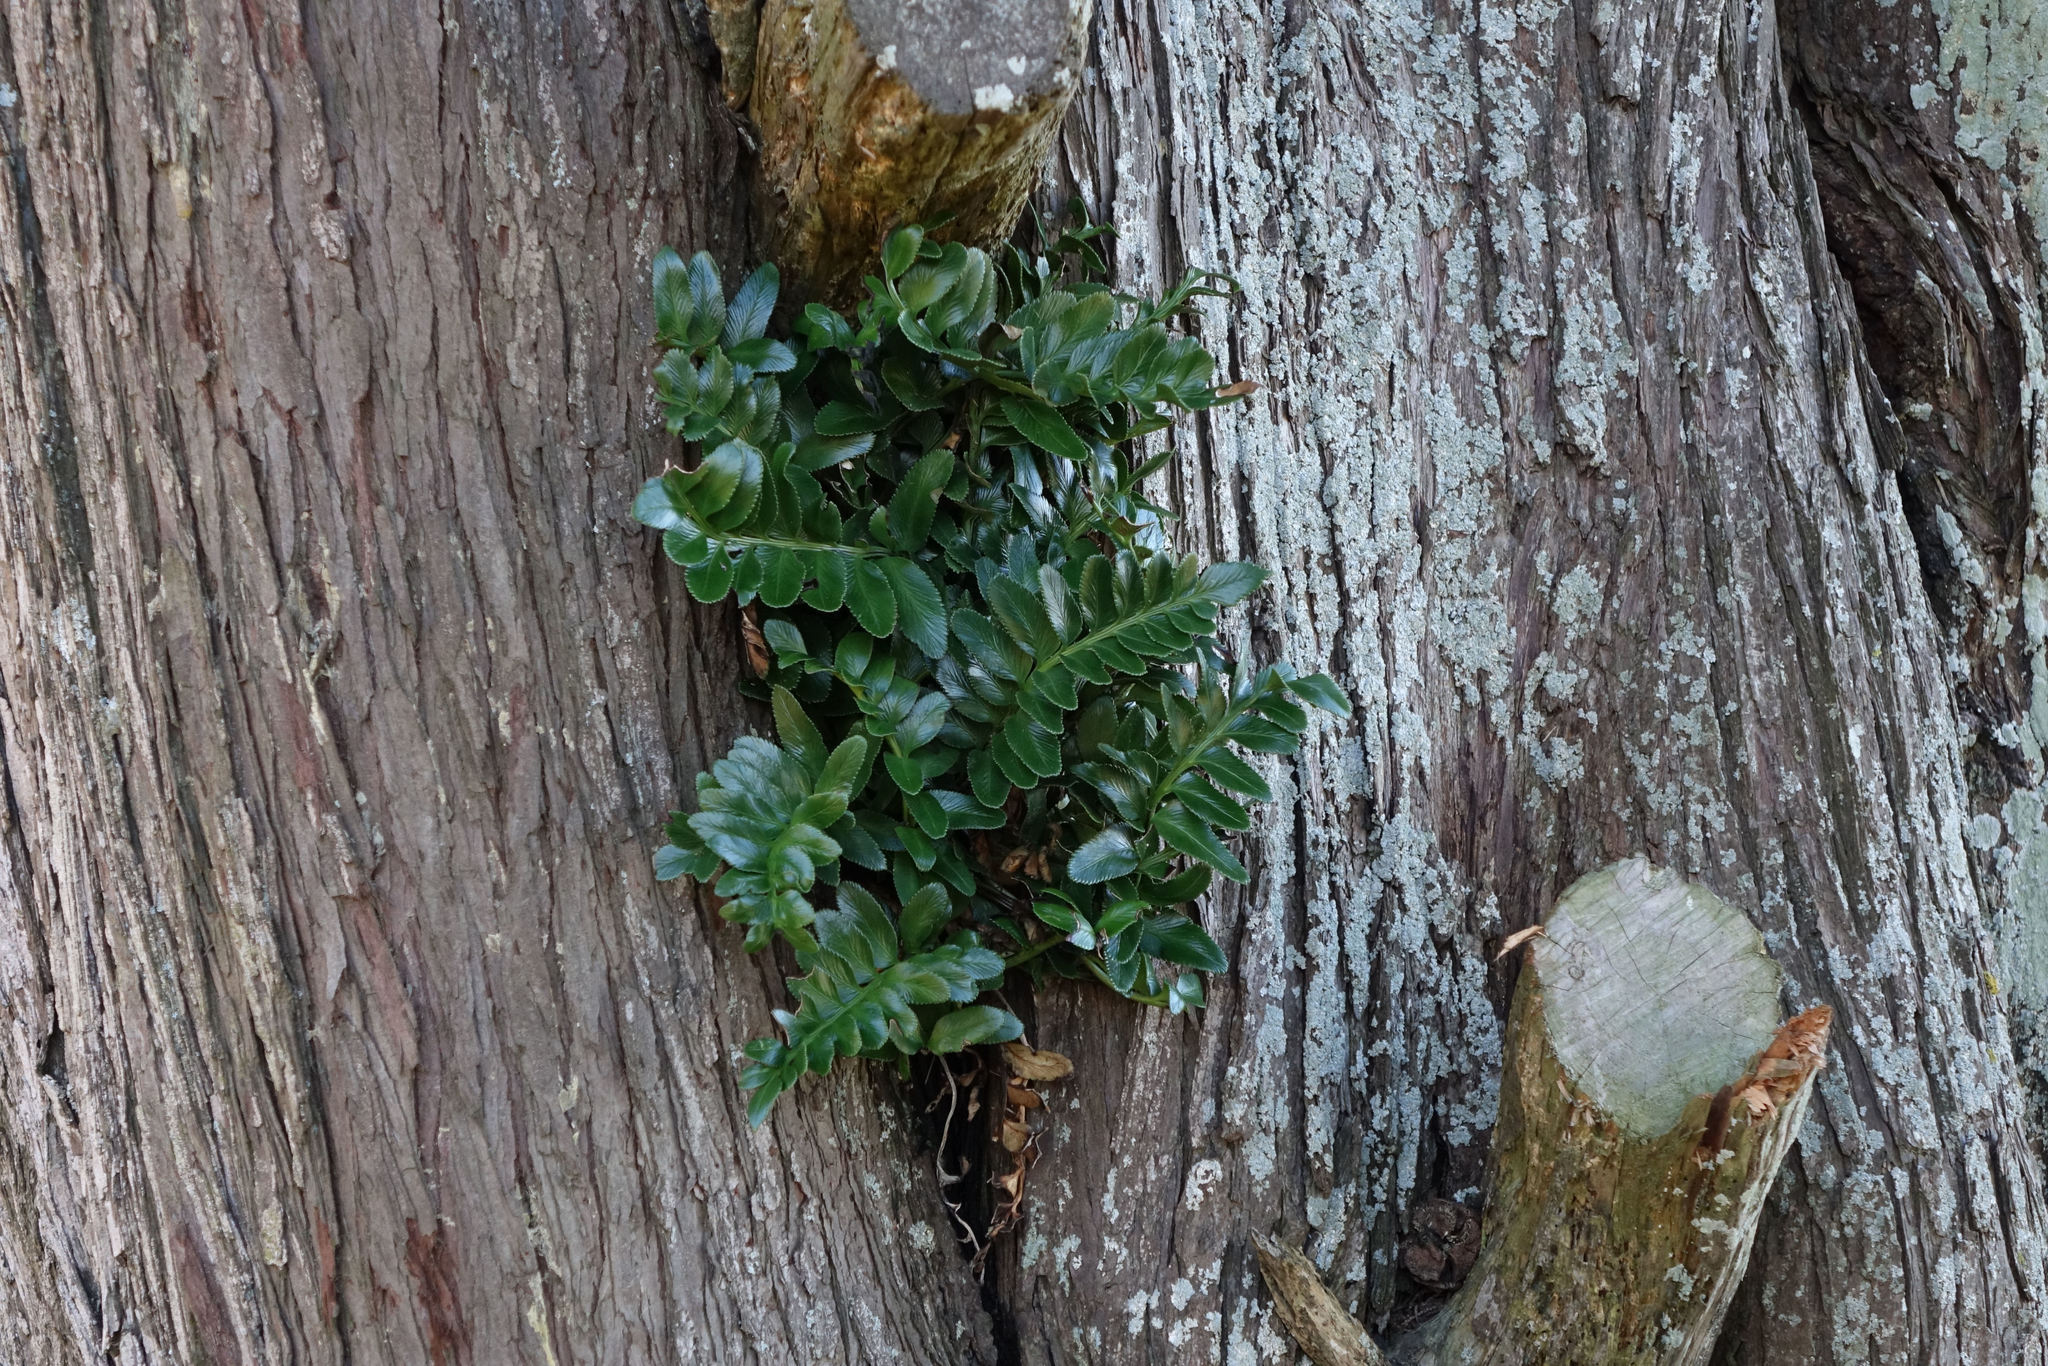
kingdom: Plantae
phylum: Tracheophyta
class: Polypodiopsida
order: Polypodiales
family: Aspleniaceae
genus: Asplenium
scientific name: Asplenium obtusatum
